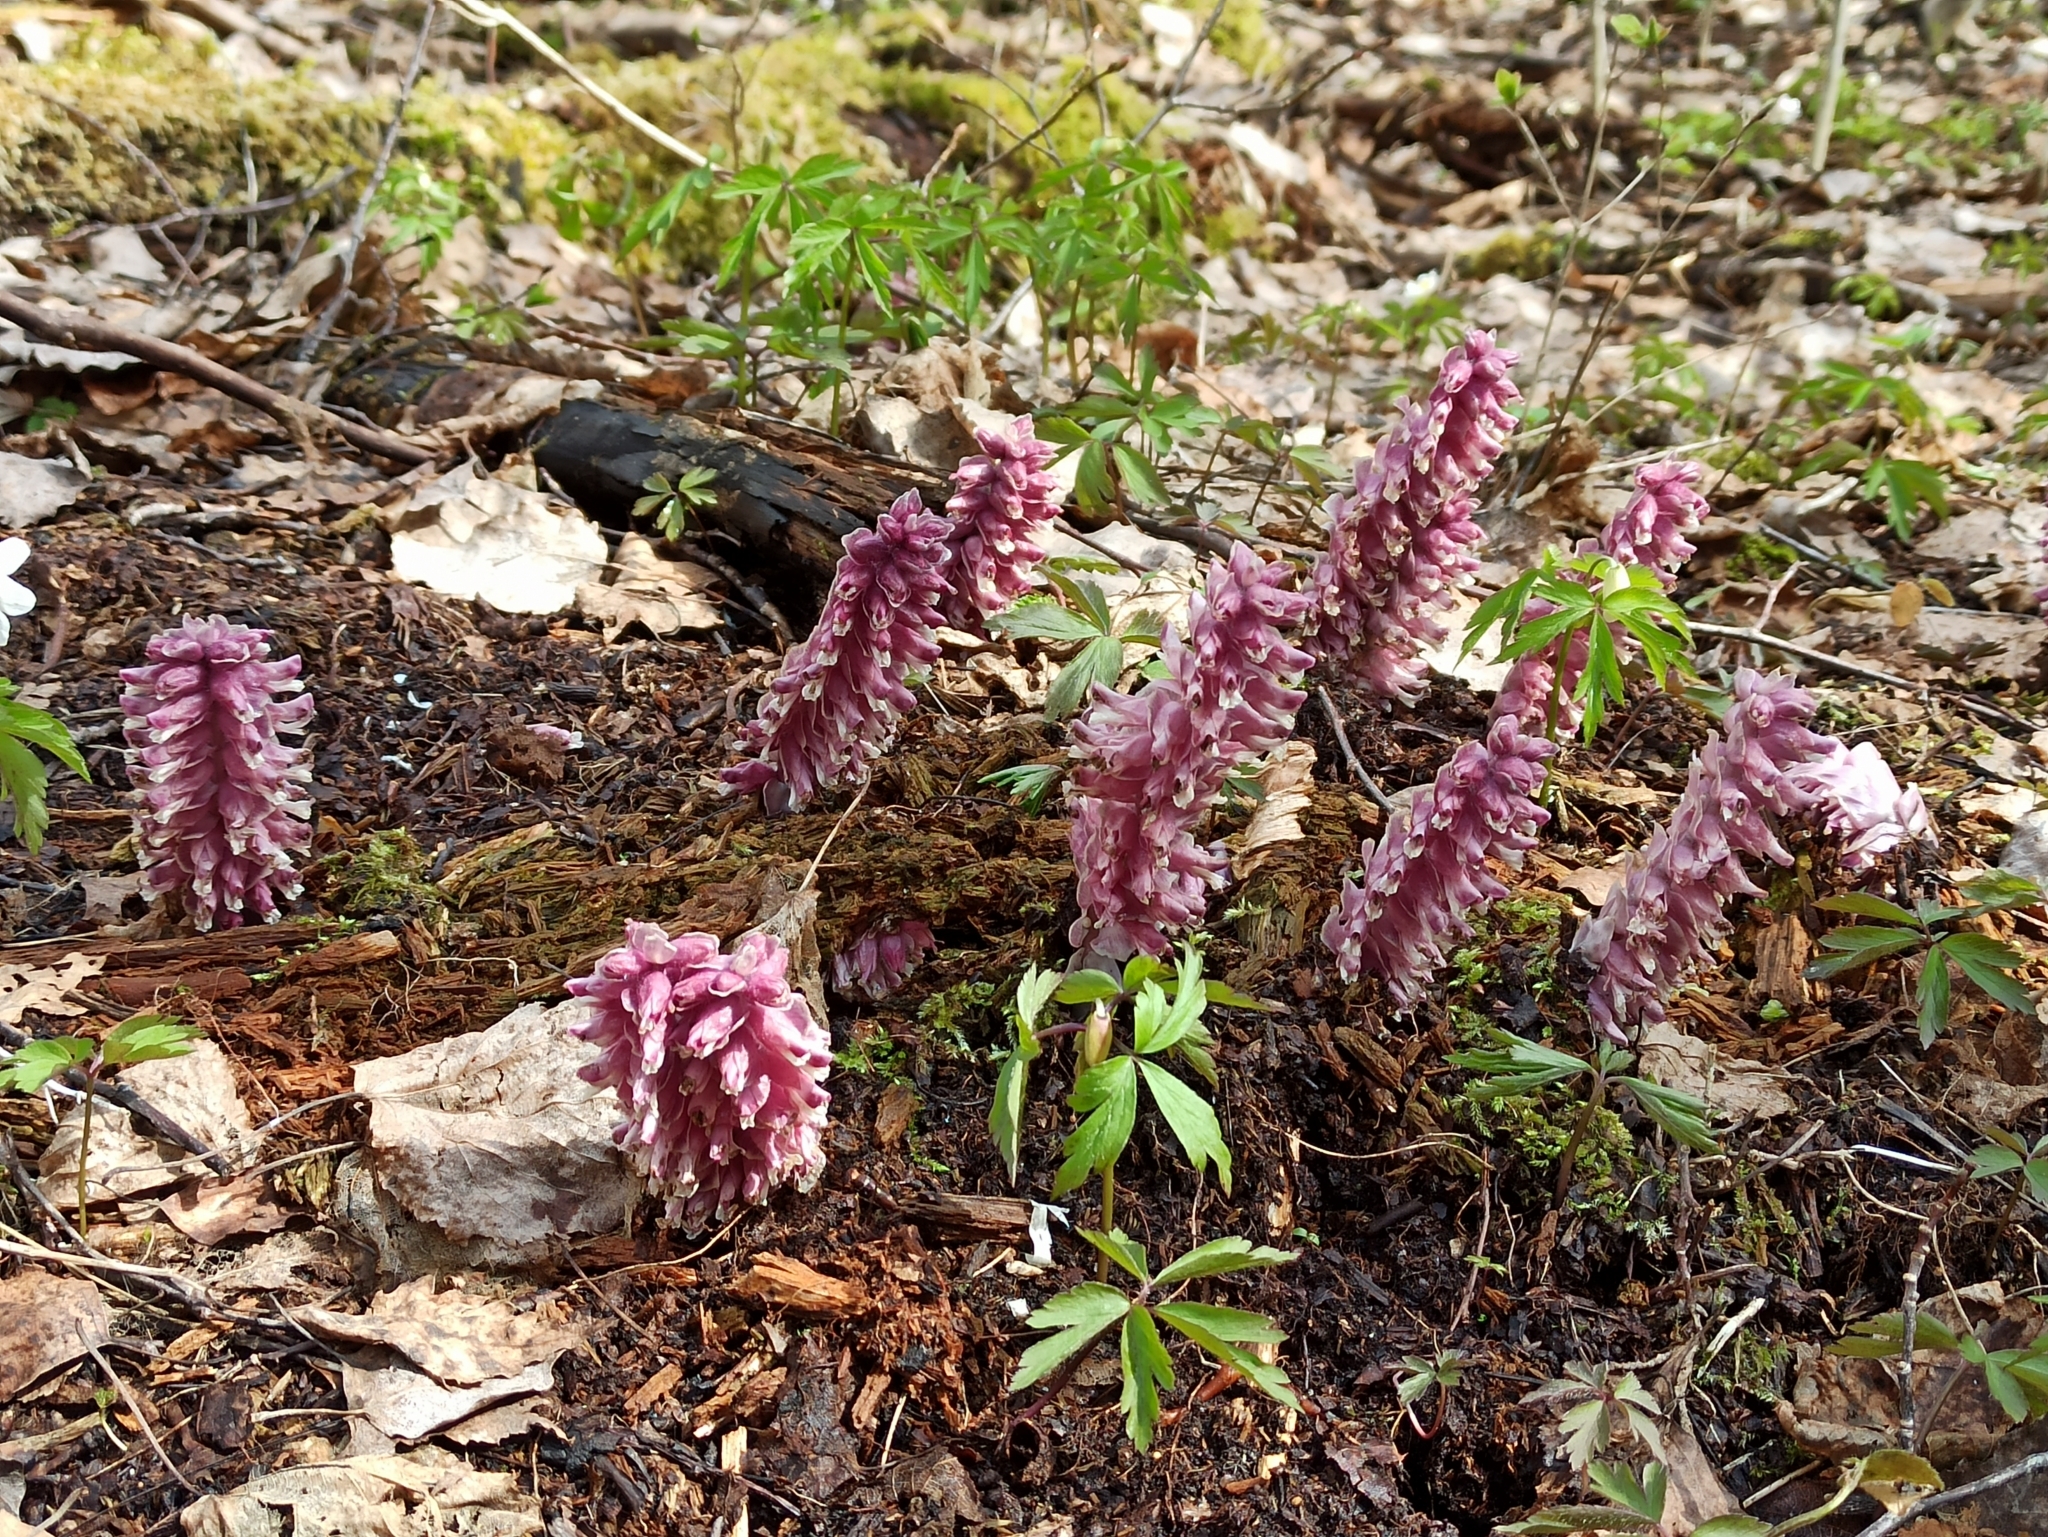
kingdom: Plantae
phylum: Tracheophyta
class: Magnoliopsida
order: Lamiales
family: Orobanchaceae
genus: Lathraea
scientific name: Lathraea squamaria
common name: Toothwort
